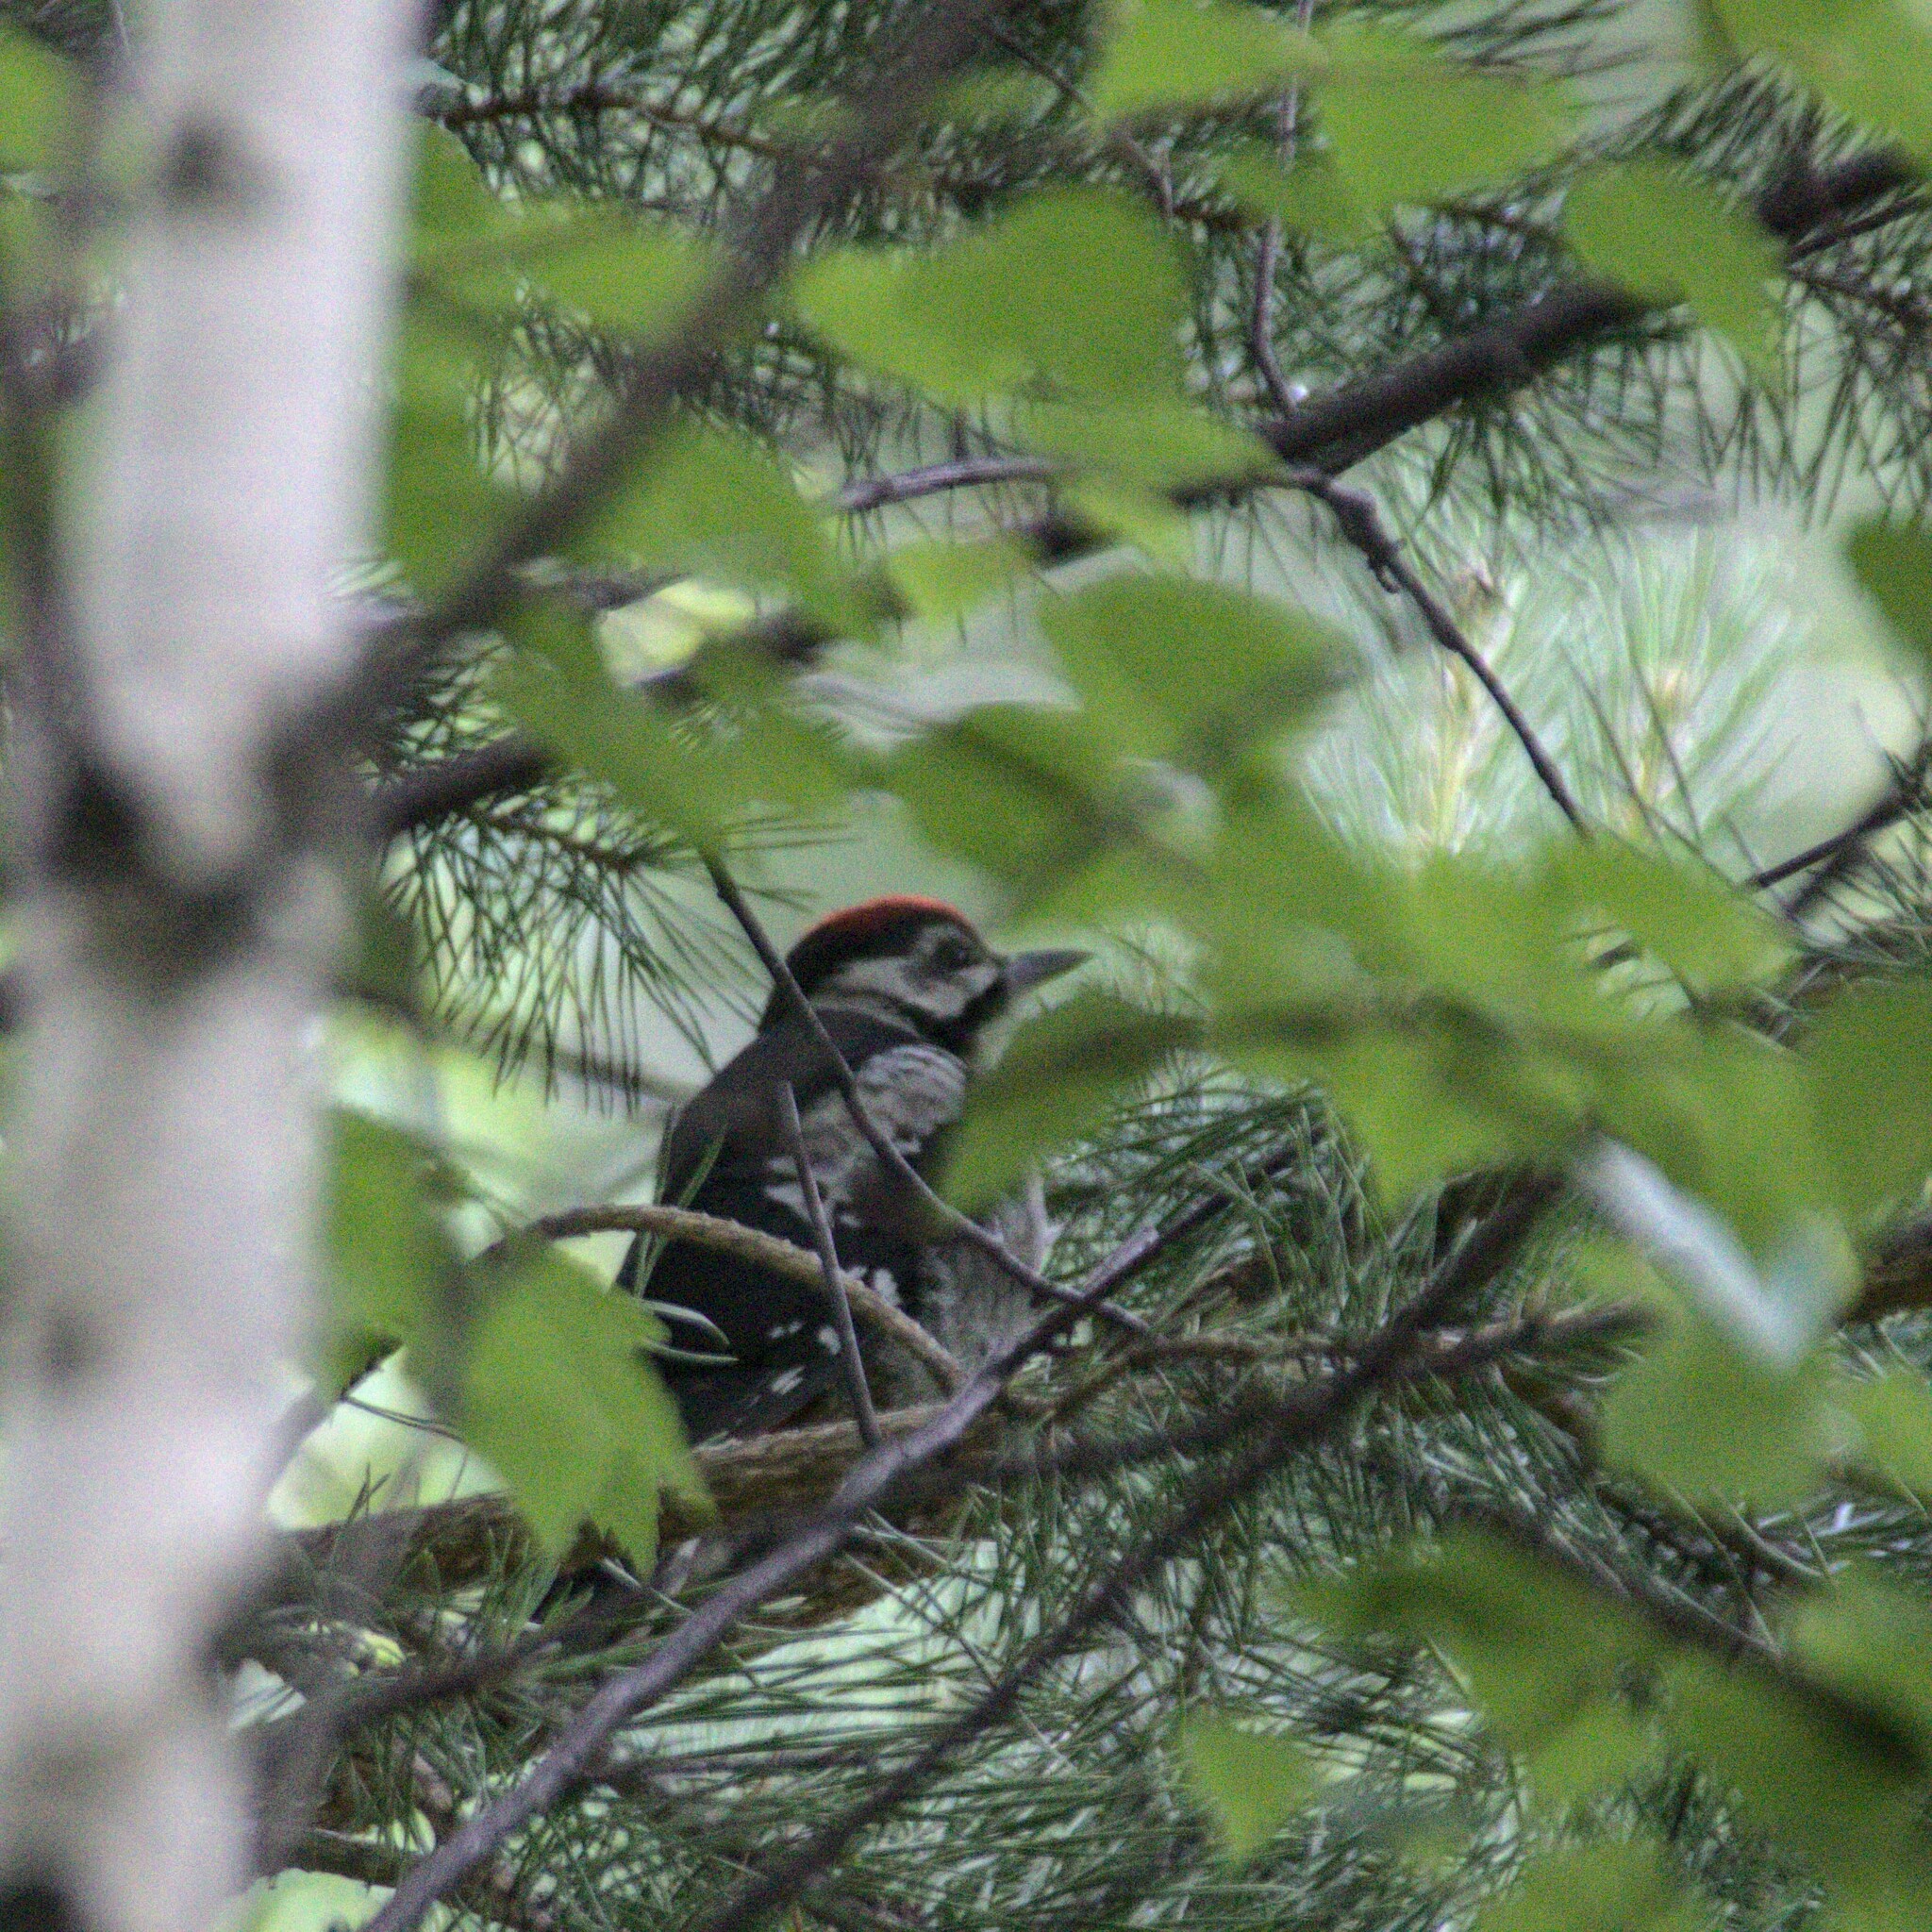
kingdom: Animalia
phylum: Chordata
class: Aves
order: Piciformes
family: Picidae
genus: Dryobates
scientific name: Dryobates minor
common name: Lesser spotted woodpecker
